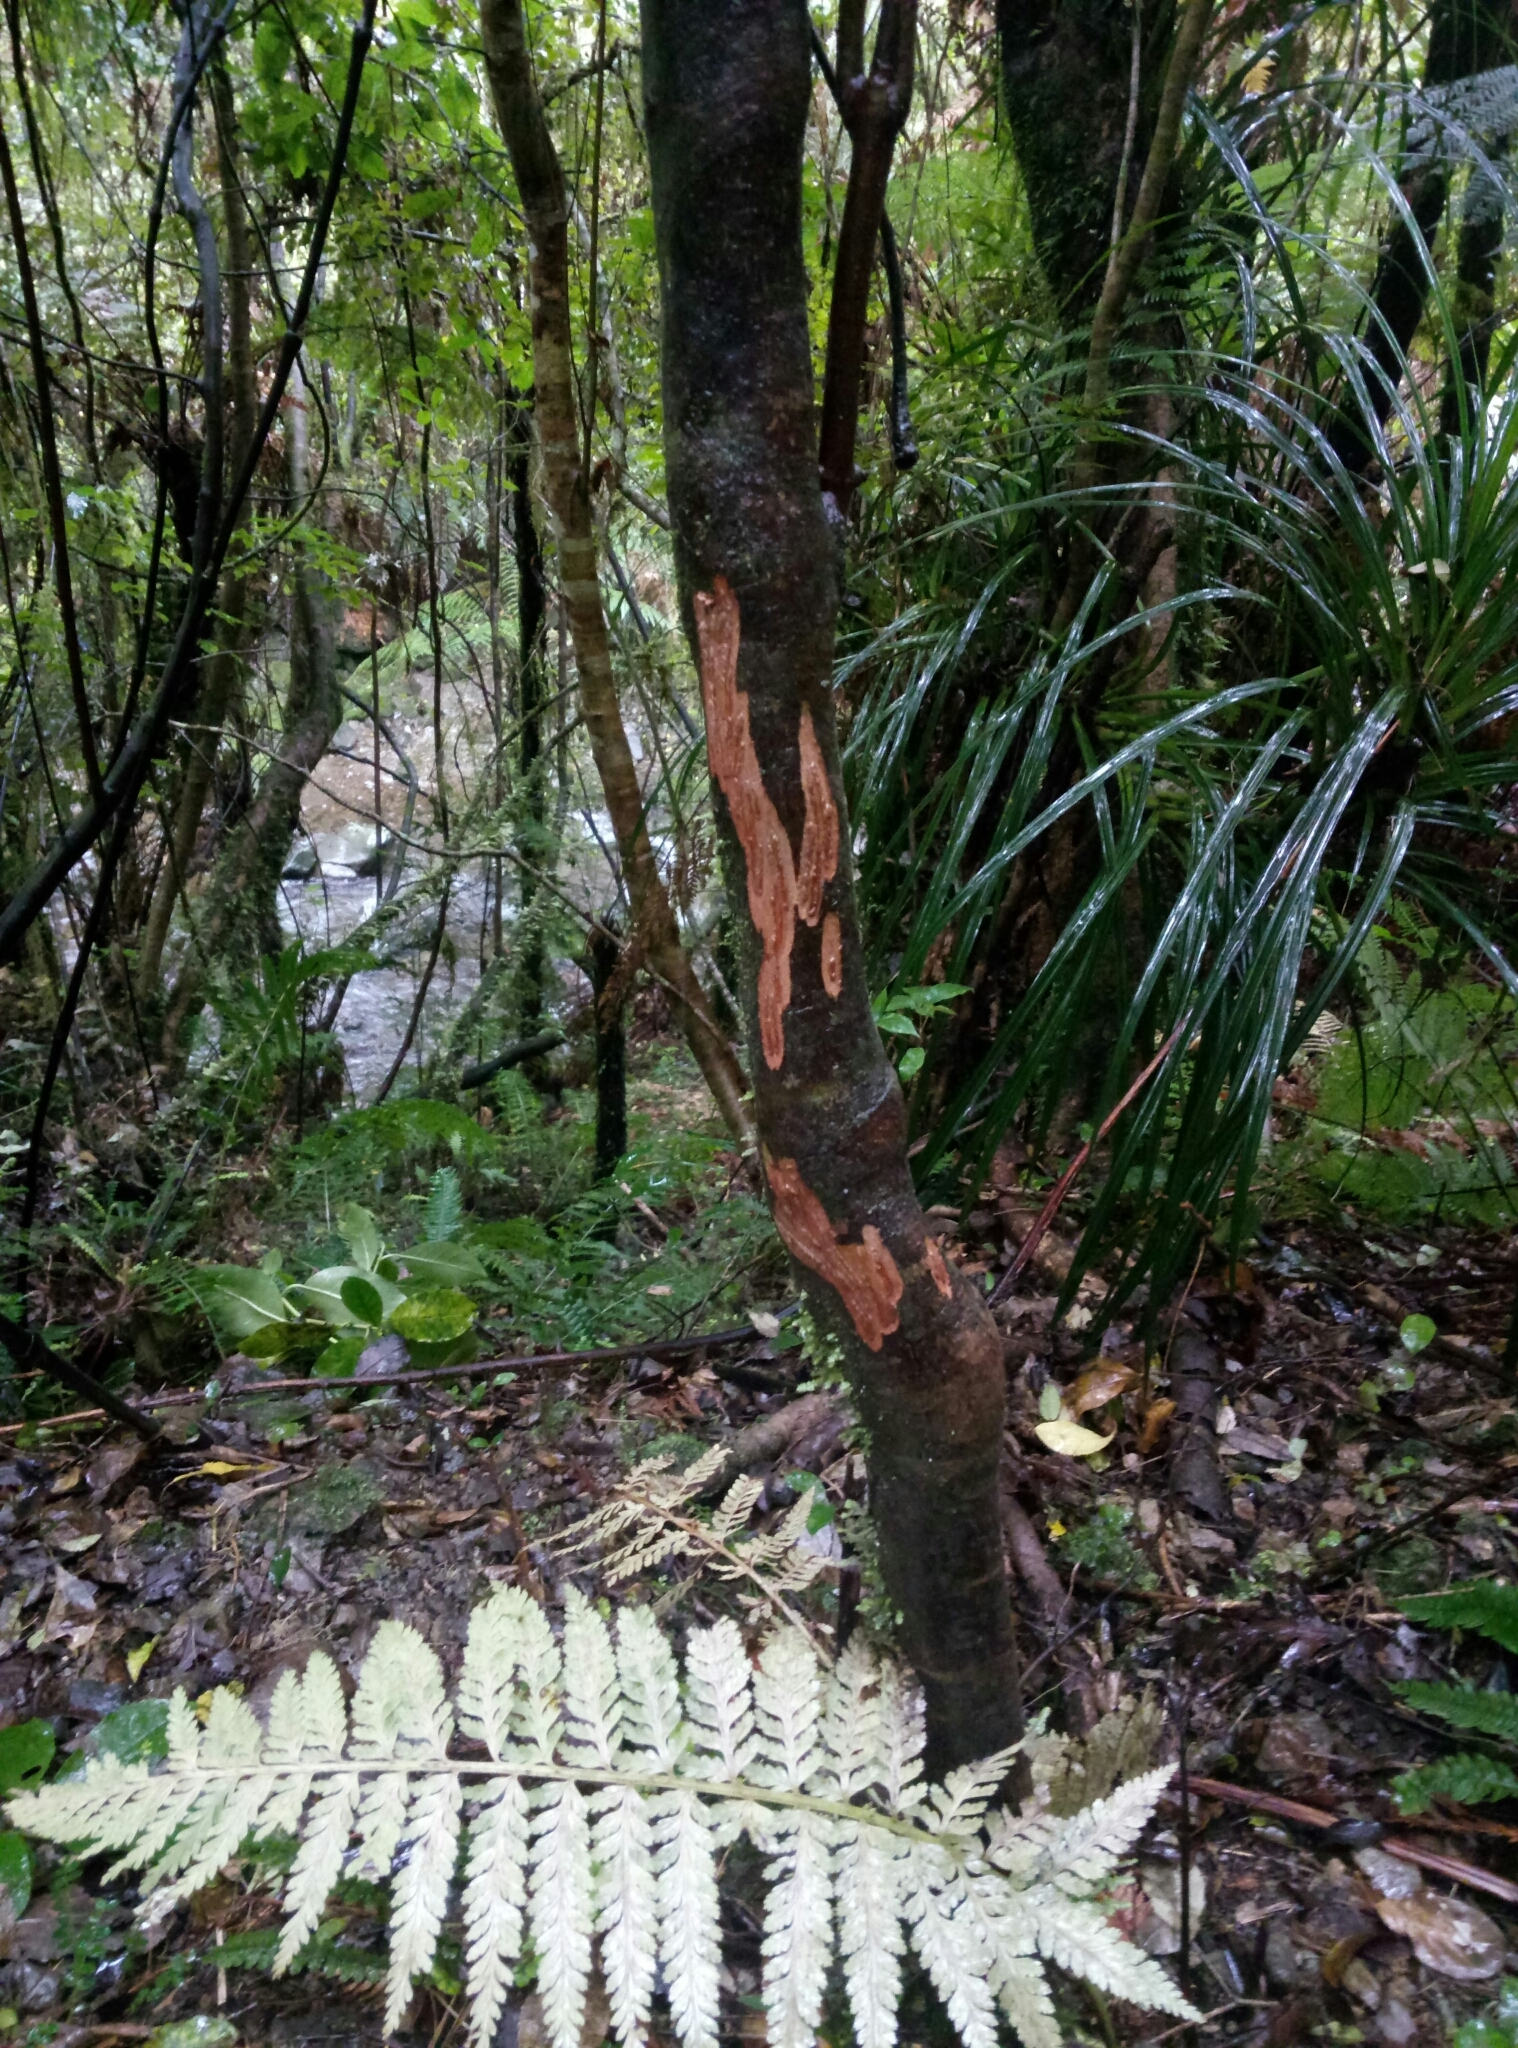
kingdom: Animalia
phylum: Chordata
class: Mammalia
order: Artiodactyla
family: Cervidae
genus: Cervus
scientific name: Cervus elaphus
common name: Red deer
